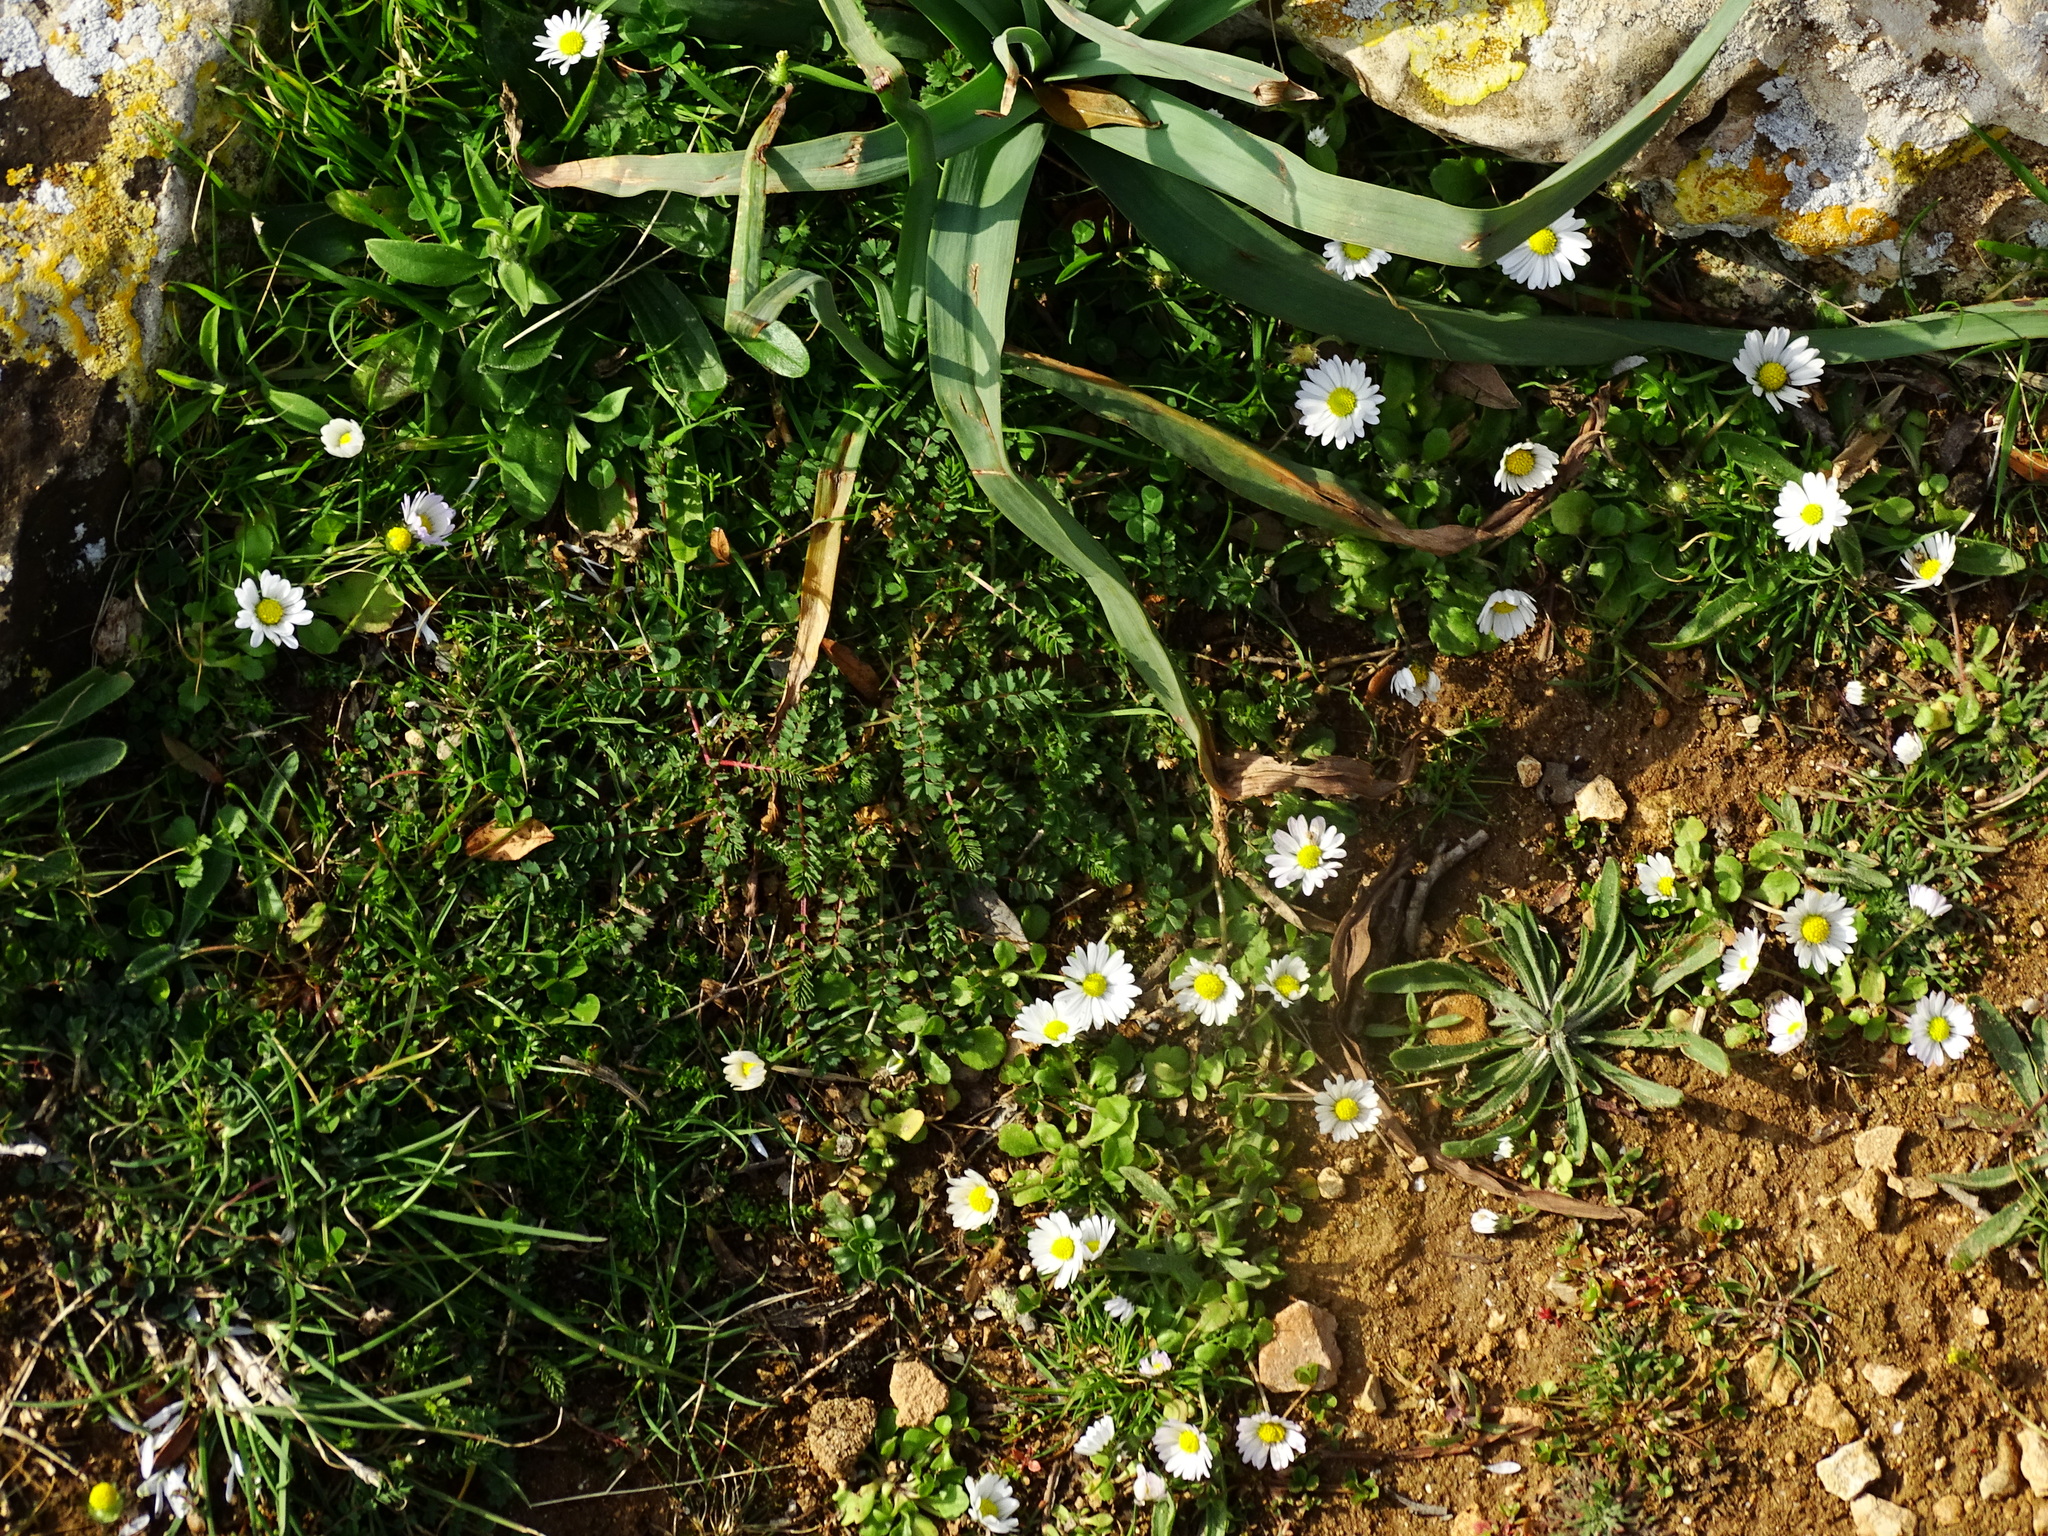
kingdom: Plantae
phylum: Tracheophyta
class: Magnoliopsida
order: Asterales
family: Asteraceae
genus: Bellis
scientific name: Bellis annua
